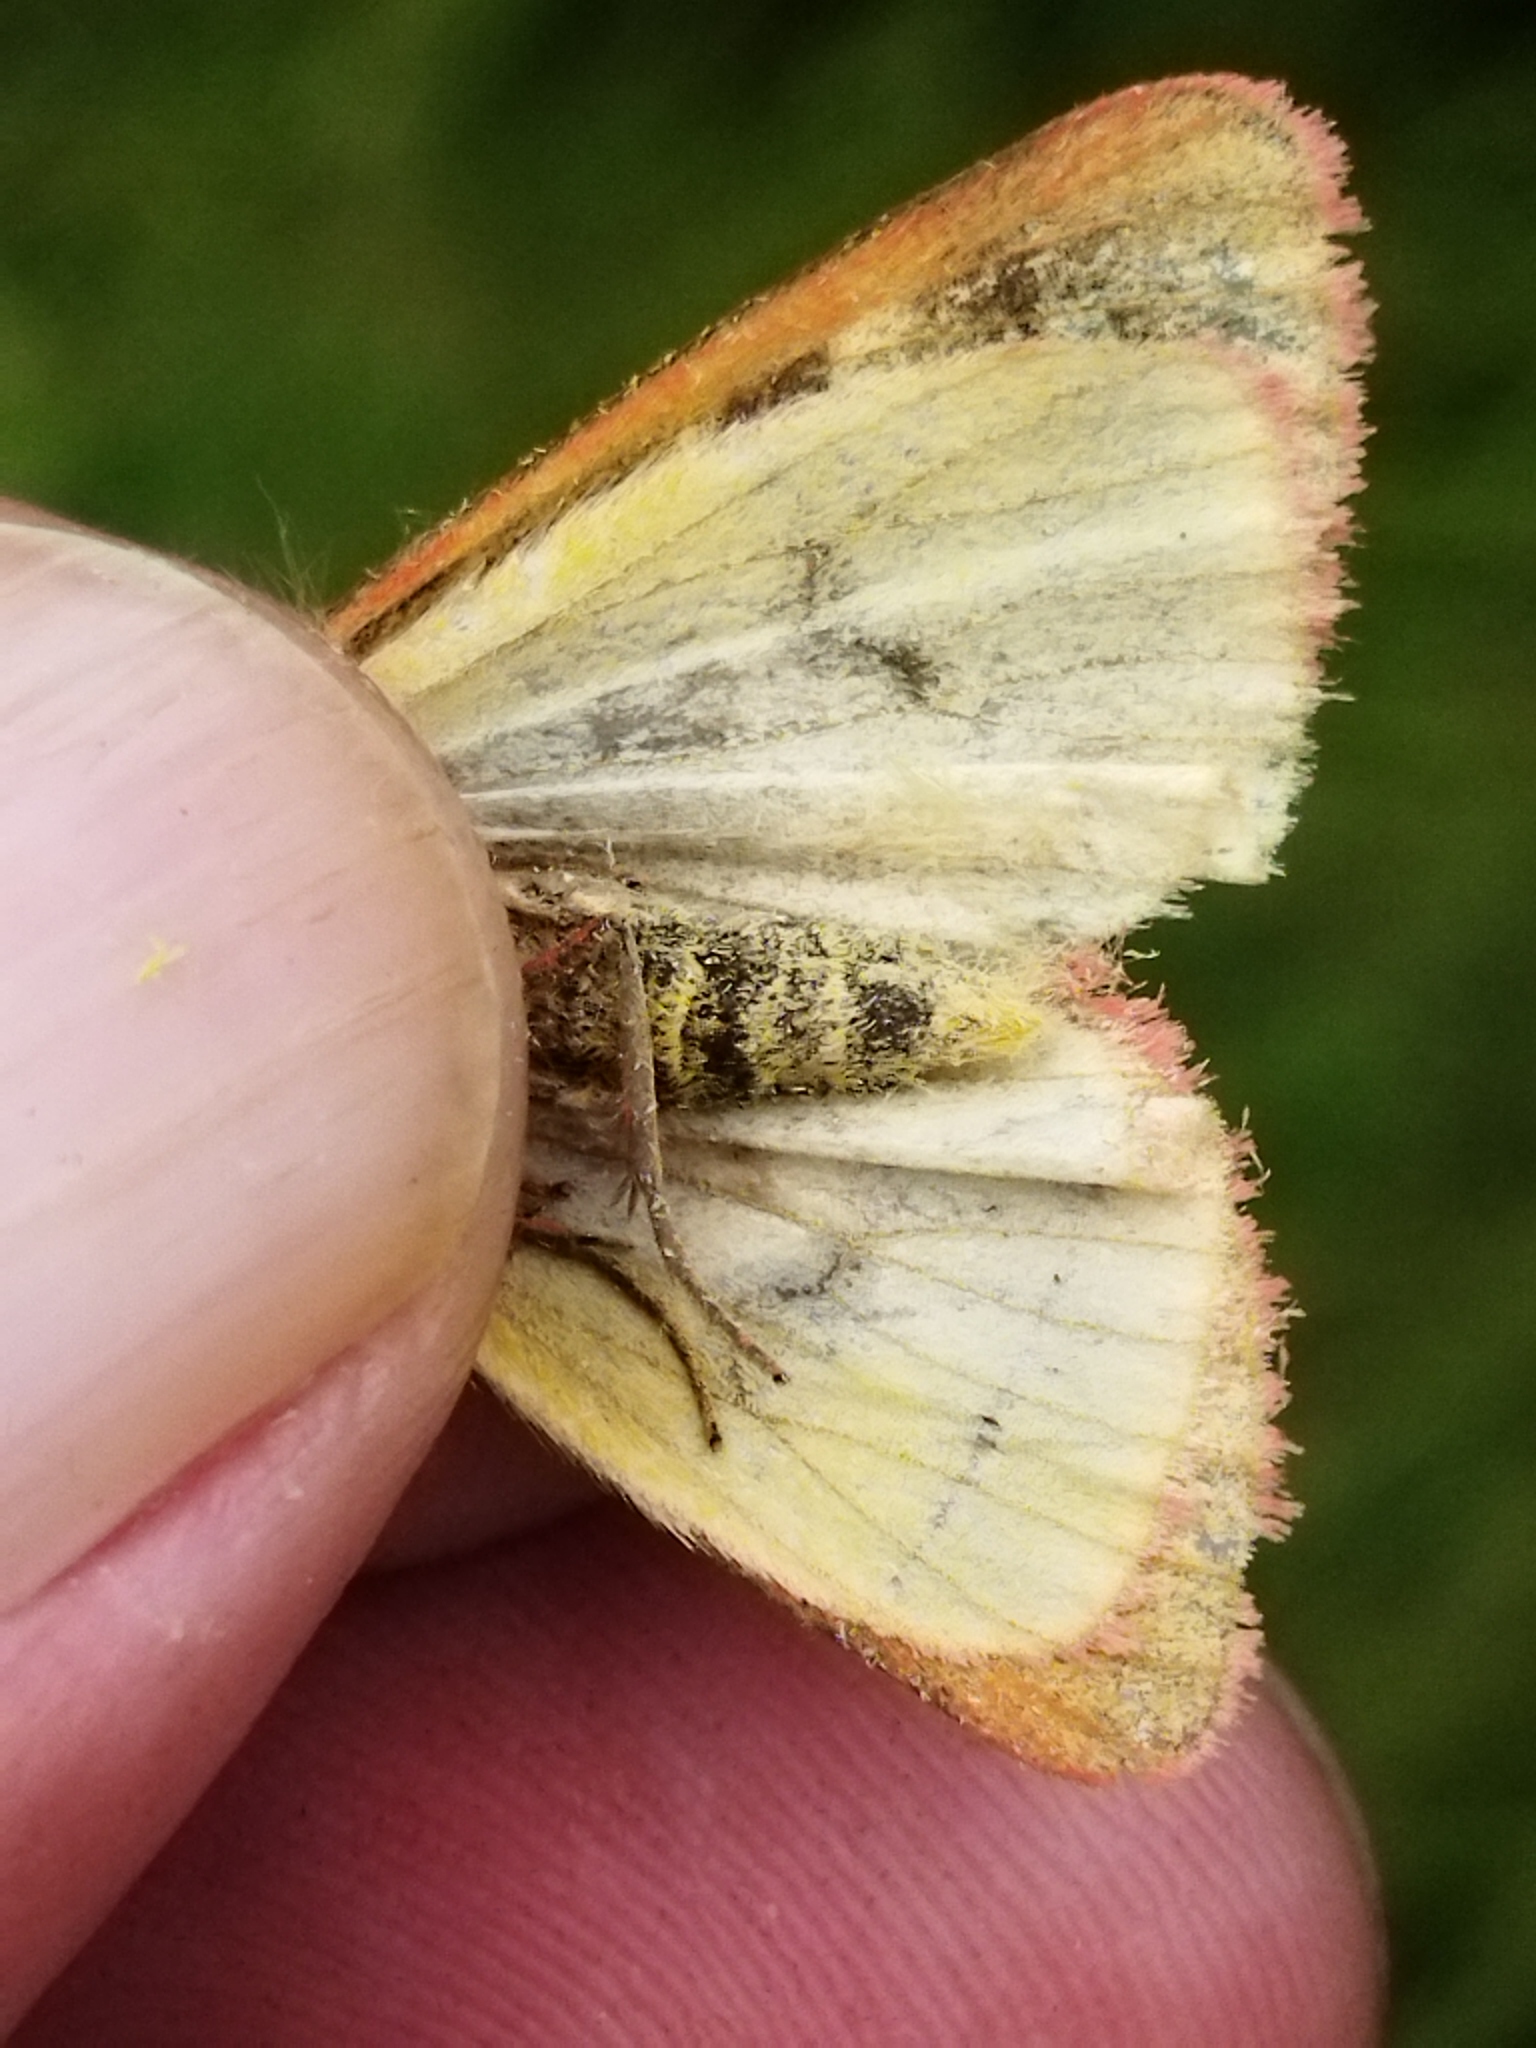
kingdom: Animalia
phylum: Arthropoda
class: Insecta
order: Lepidoptera
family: Erebidae
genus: Diacrisia
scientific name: Diacrisia sannio
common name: Clouded buff
